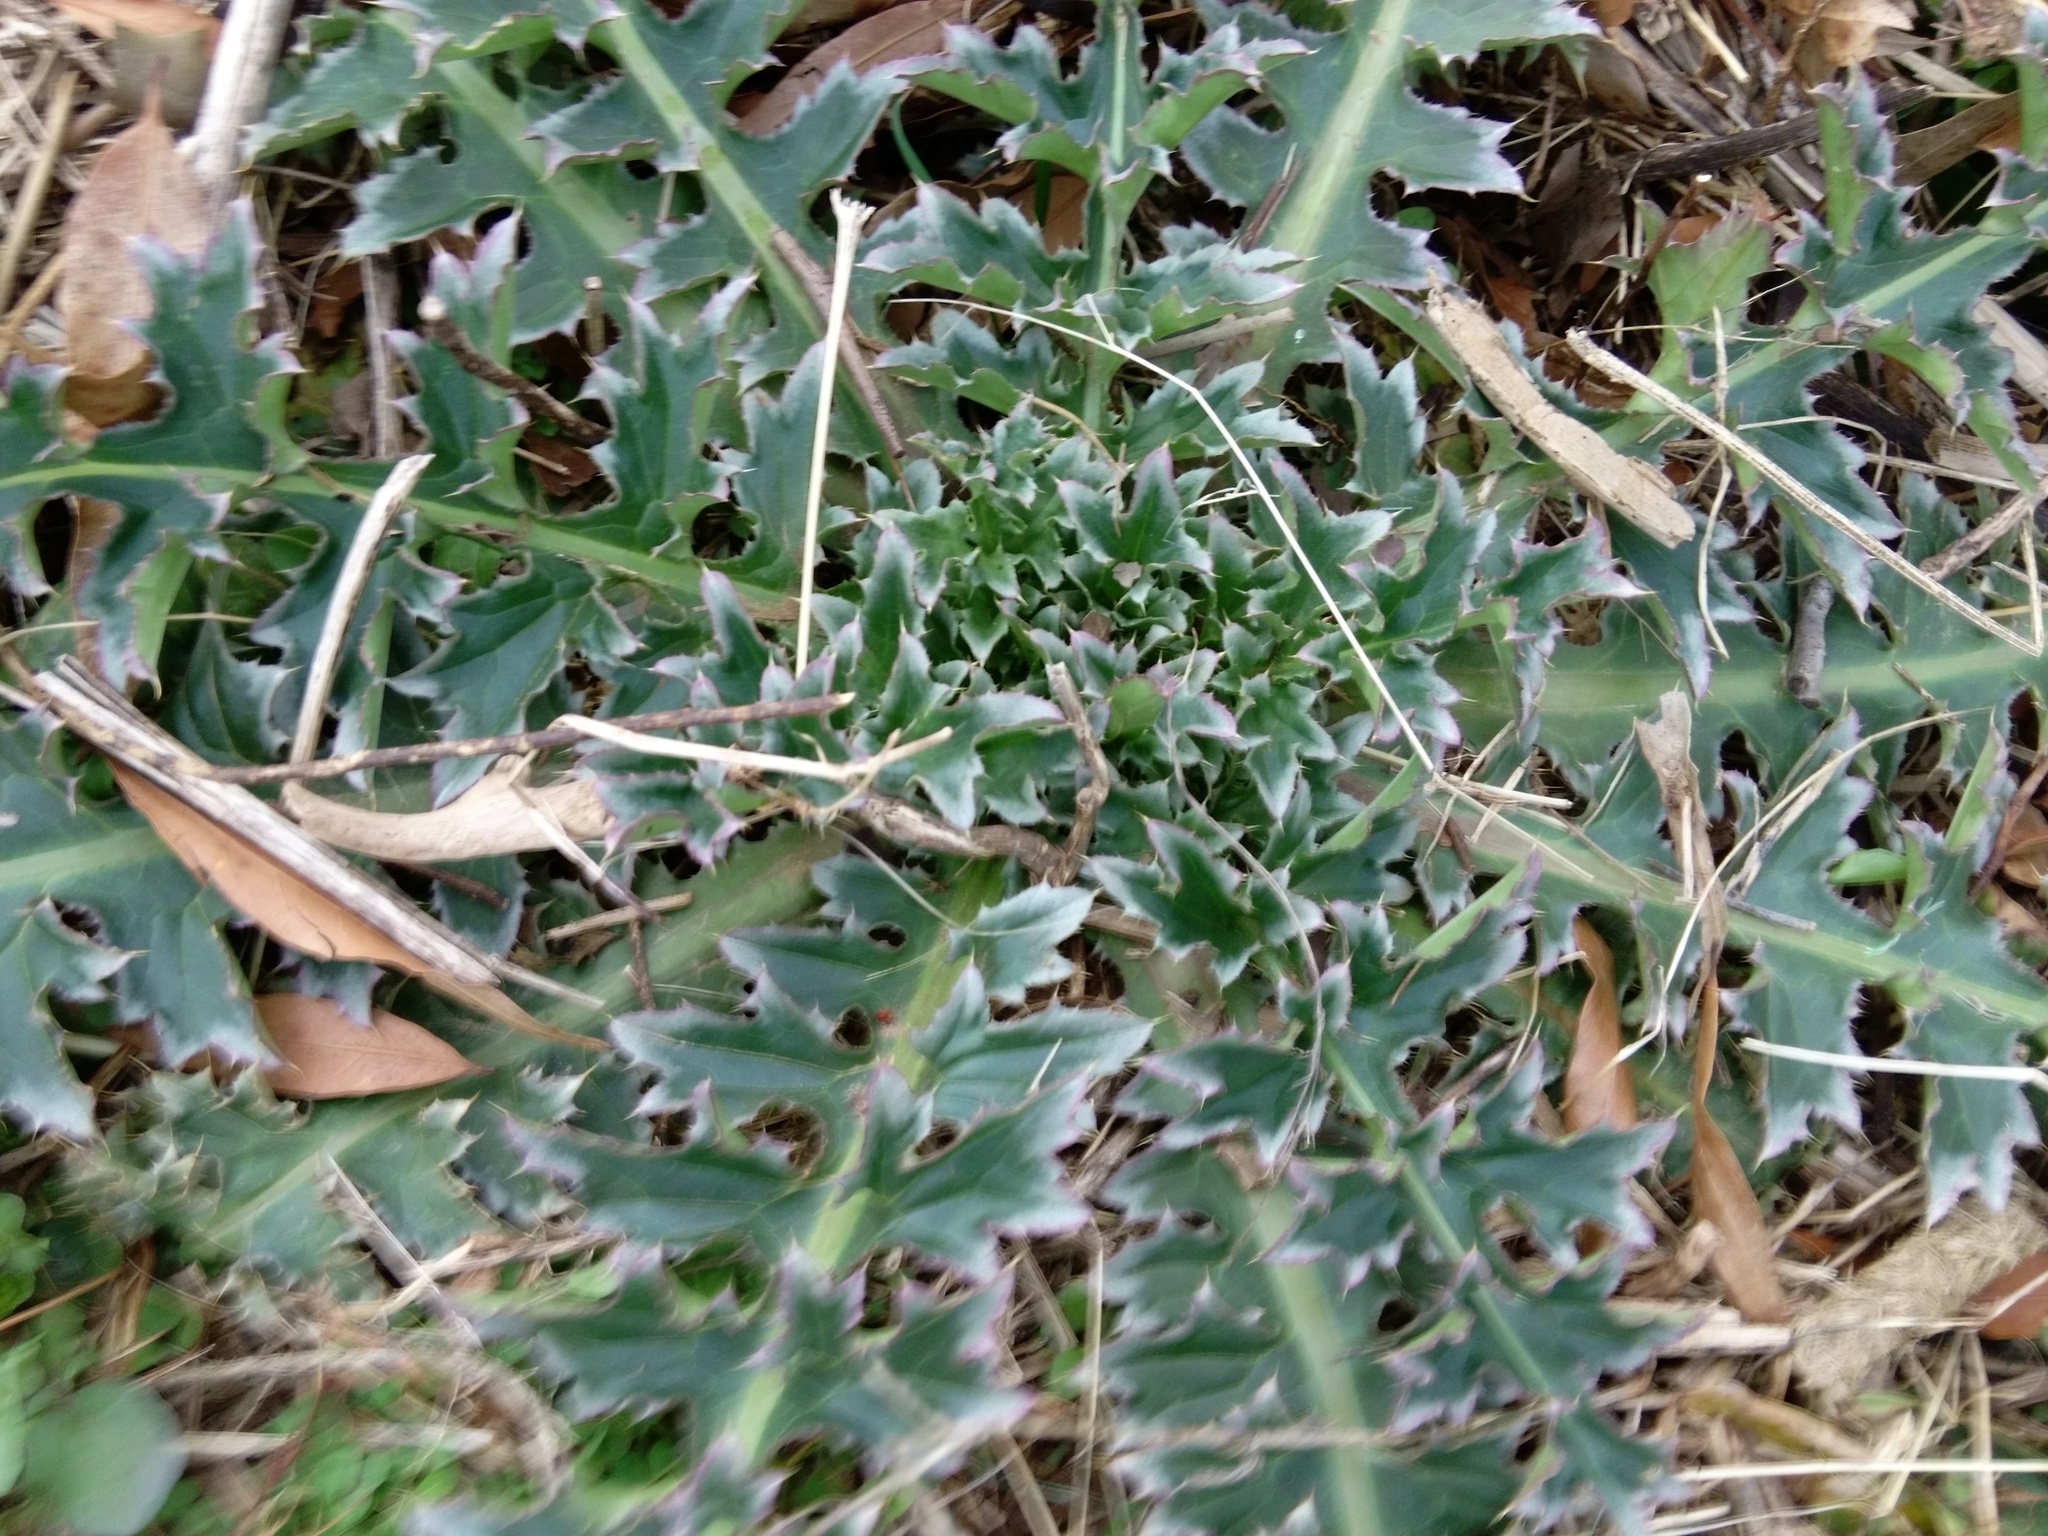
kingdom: Plantae
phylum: Tracheophyta
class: Magnoliopsida
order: Asterales
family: Asteraceae
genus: Carduus
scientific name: Carduus nutans
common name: Musk thistle
